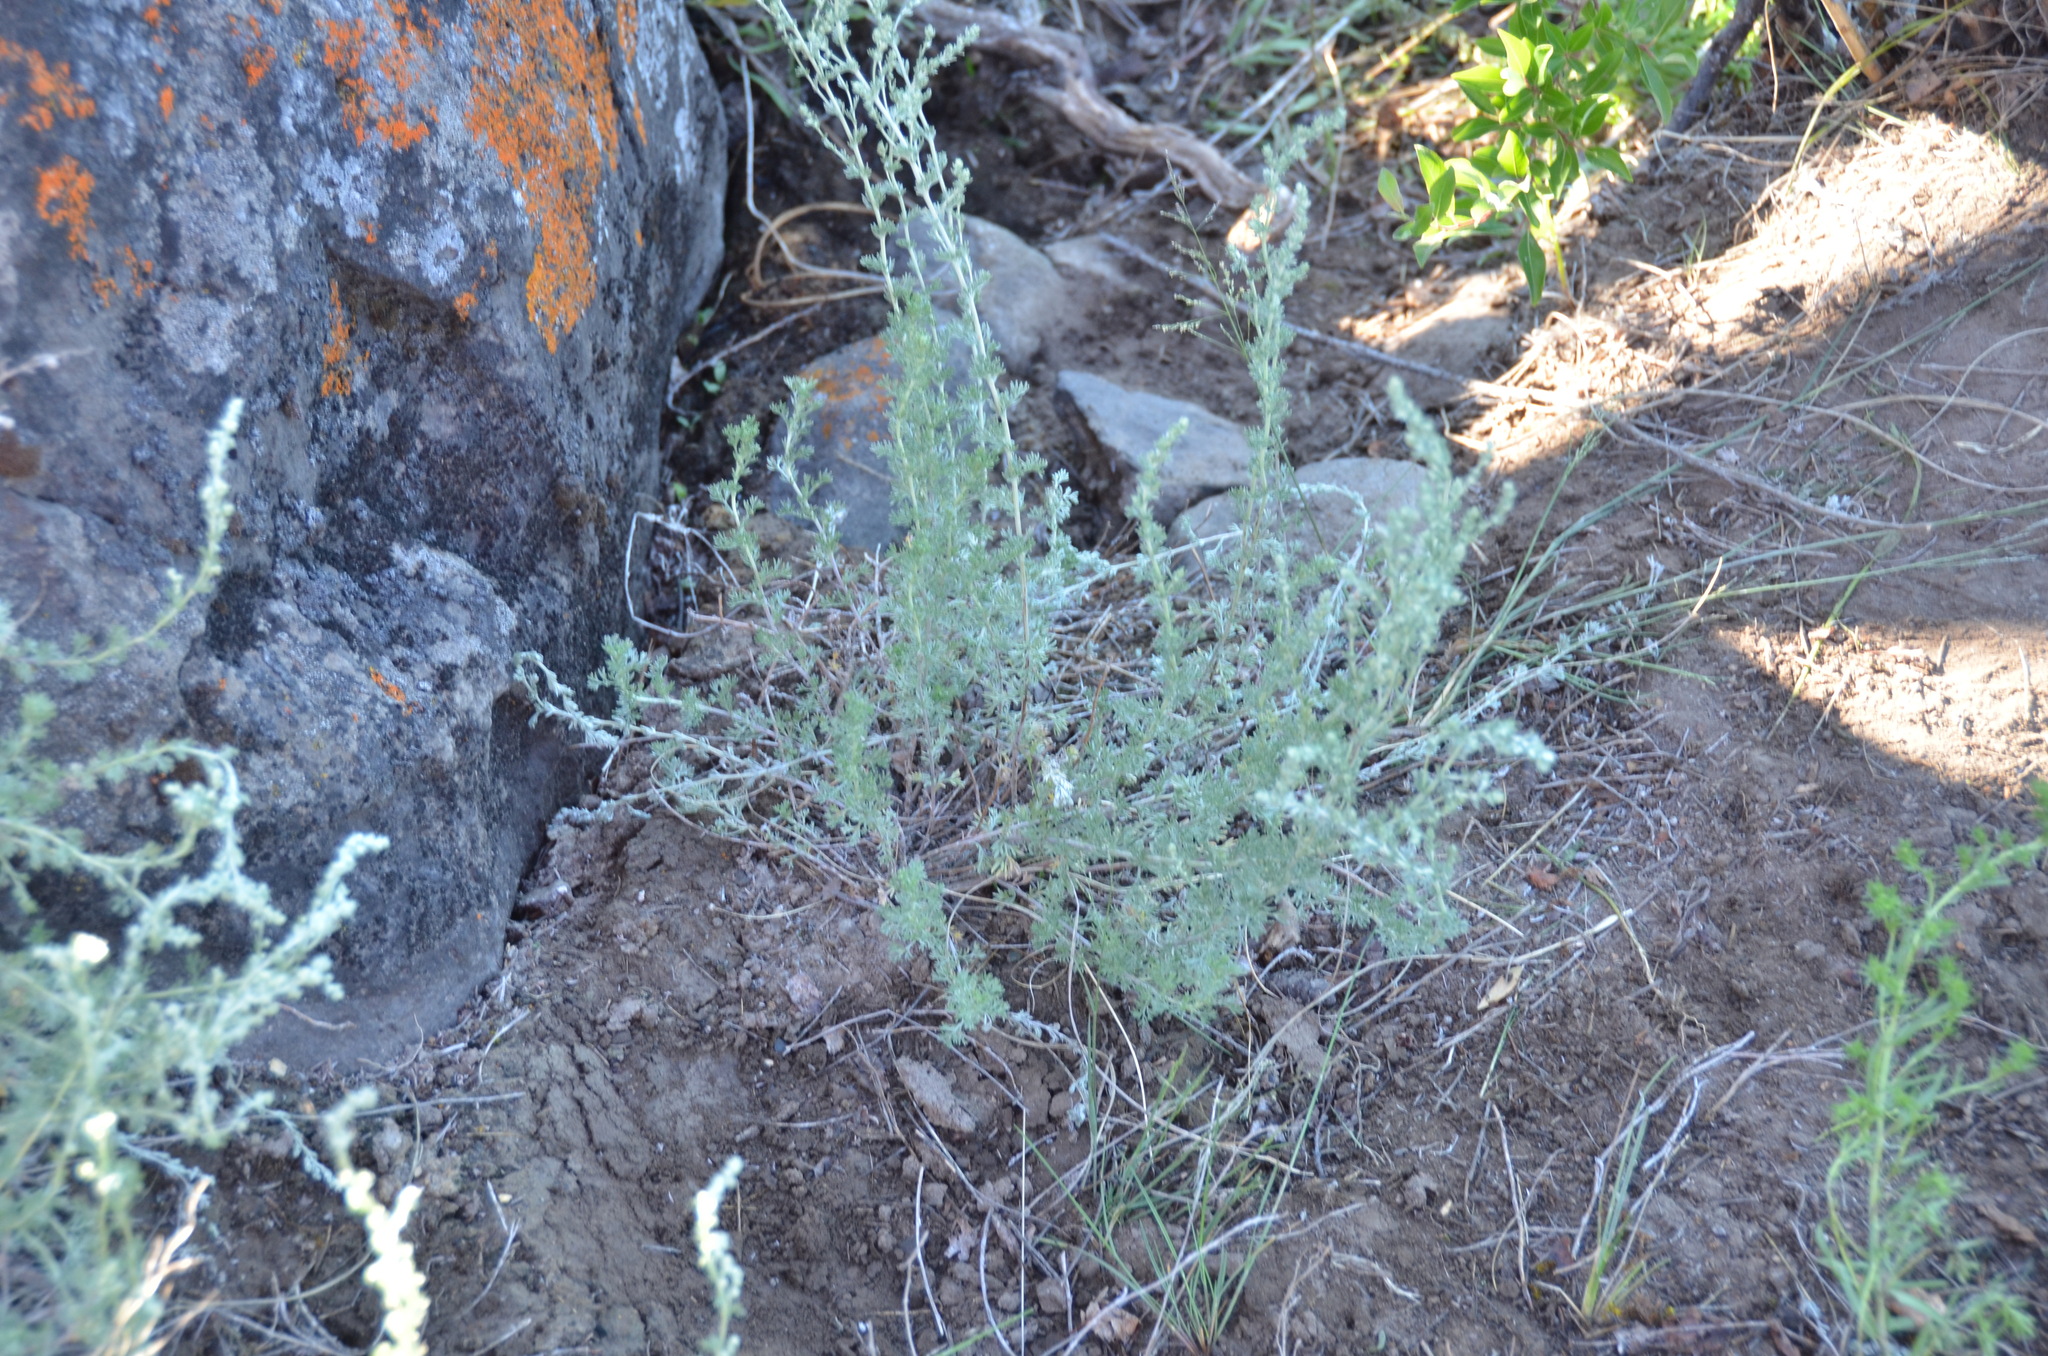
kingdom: Plantae
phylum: Tracheophyta
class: Magnoliopsida
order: Asterales
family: Asteraceae
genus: Artemisia
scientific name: Artemisia frigida
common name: Prairie sagewort
